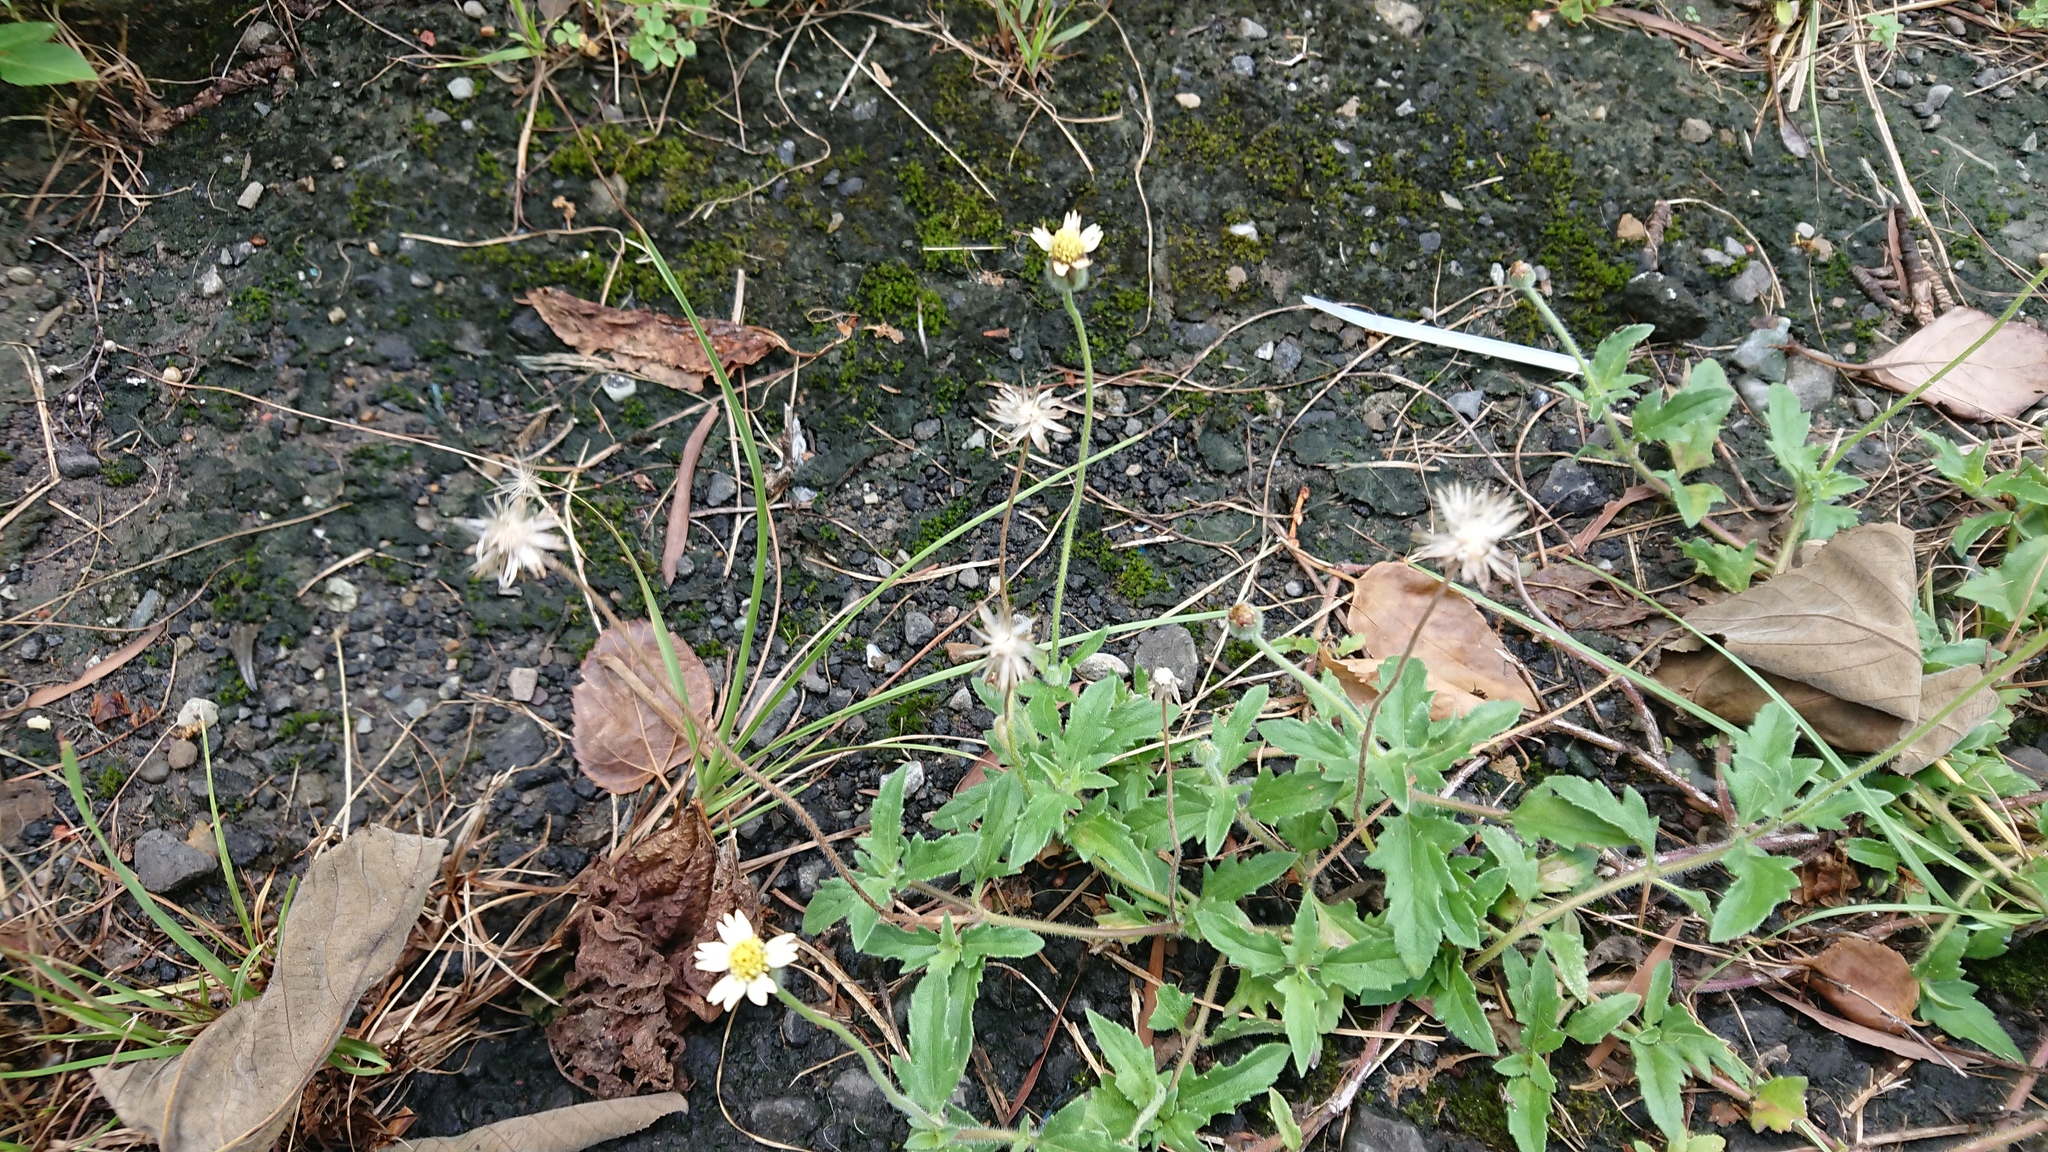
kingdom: Plantae
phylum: Tracheophyta
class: Magnoliopsida
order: Asterales
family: Asteraceae
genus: Tridax
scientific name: Tridax procumbens
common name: Coatbuttons
